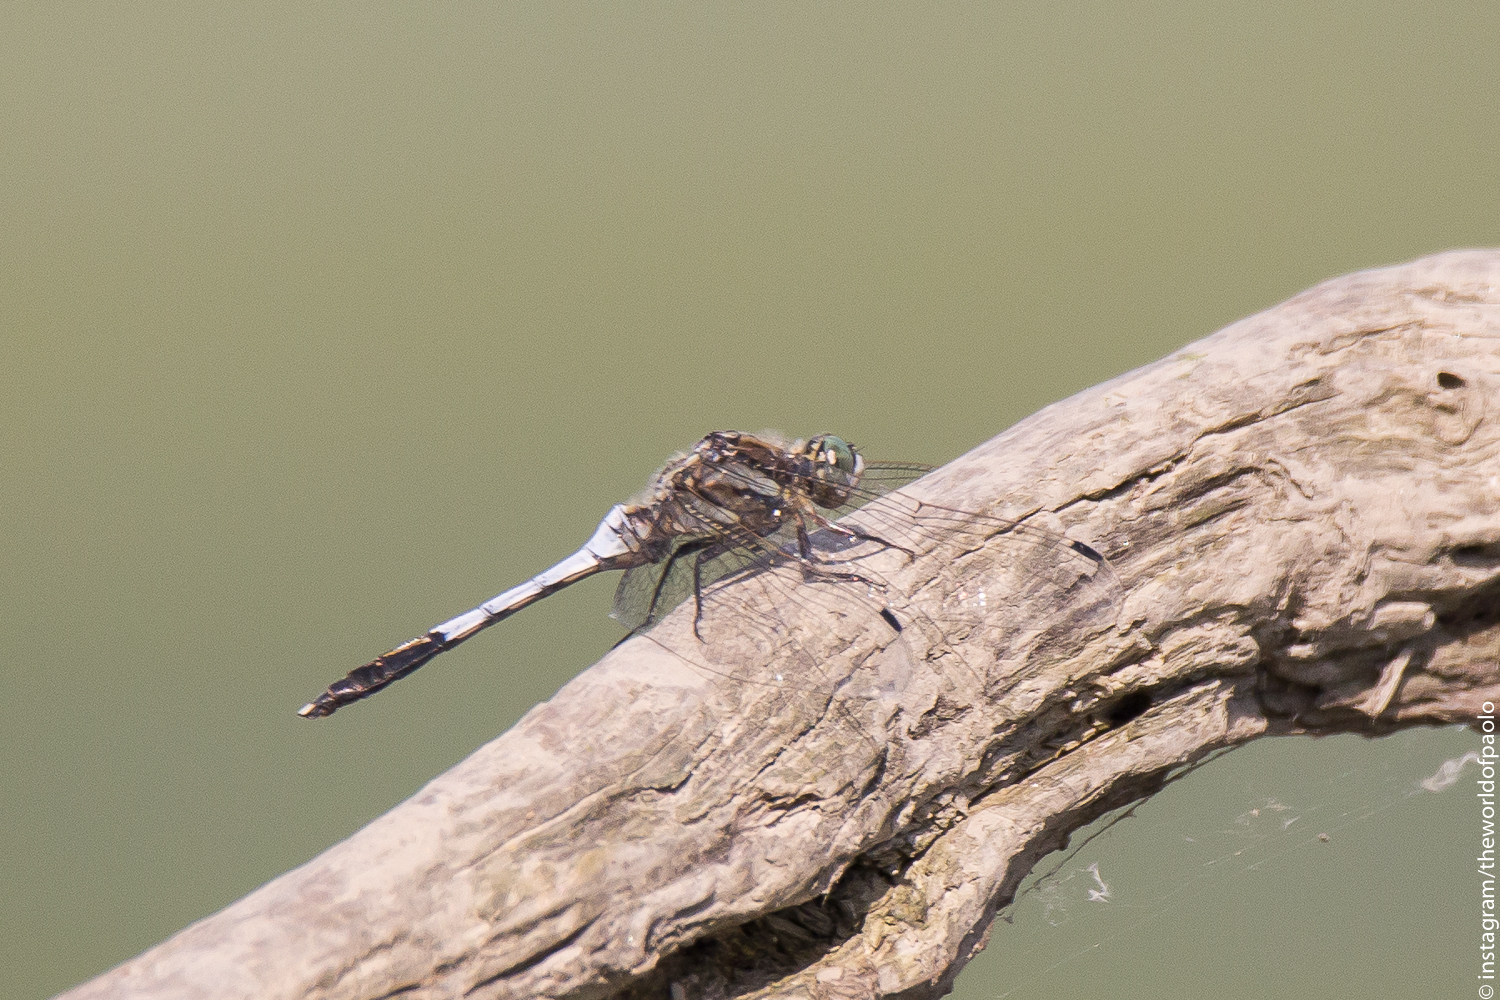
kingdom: Animalia
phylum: Arthropoda
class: Insecta
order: Odonata
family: Libellulidae
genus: Orthetrum
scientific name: Orthetrum albistylum
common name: White-tailed skimmer
